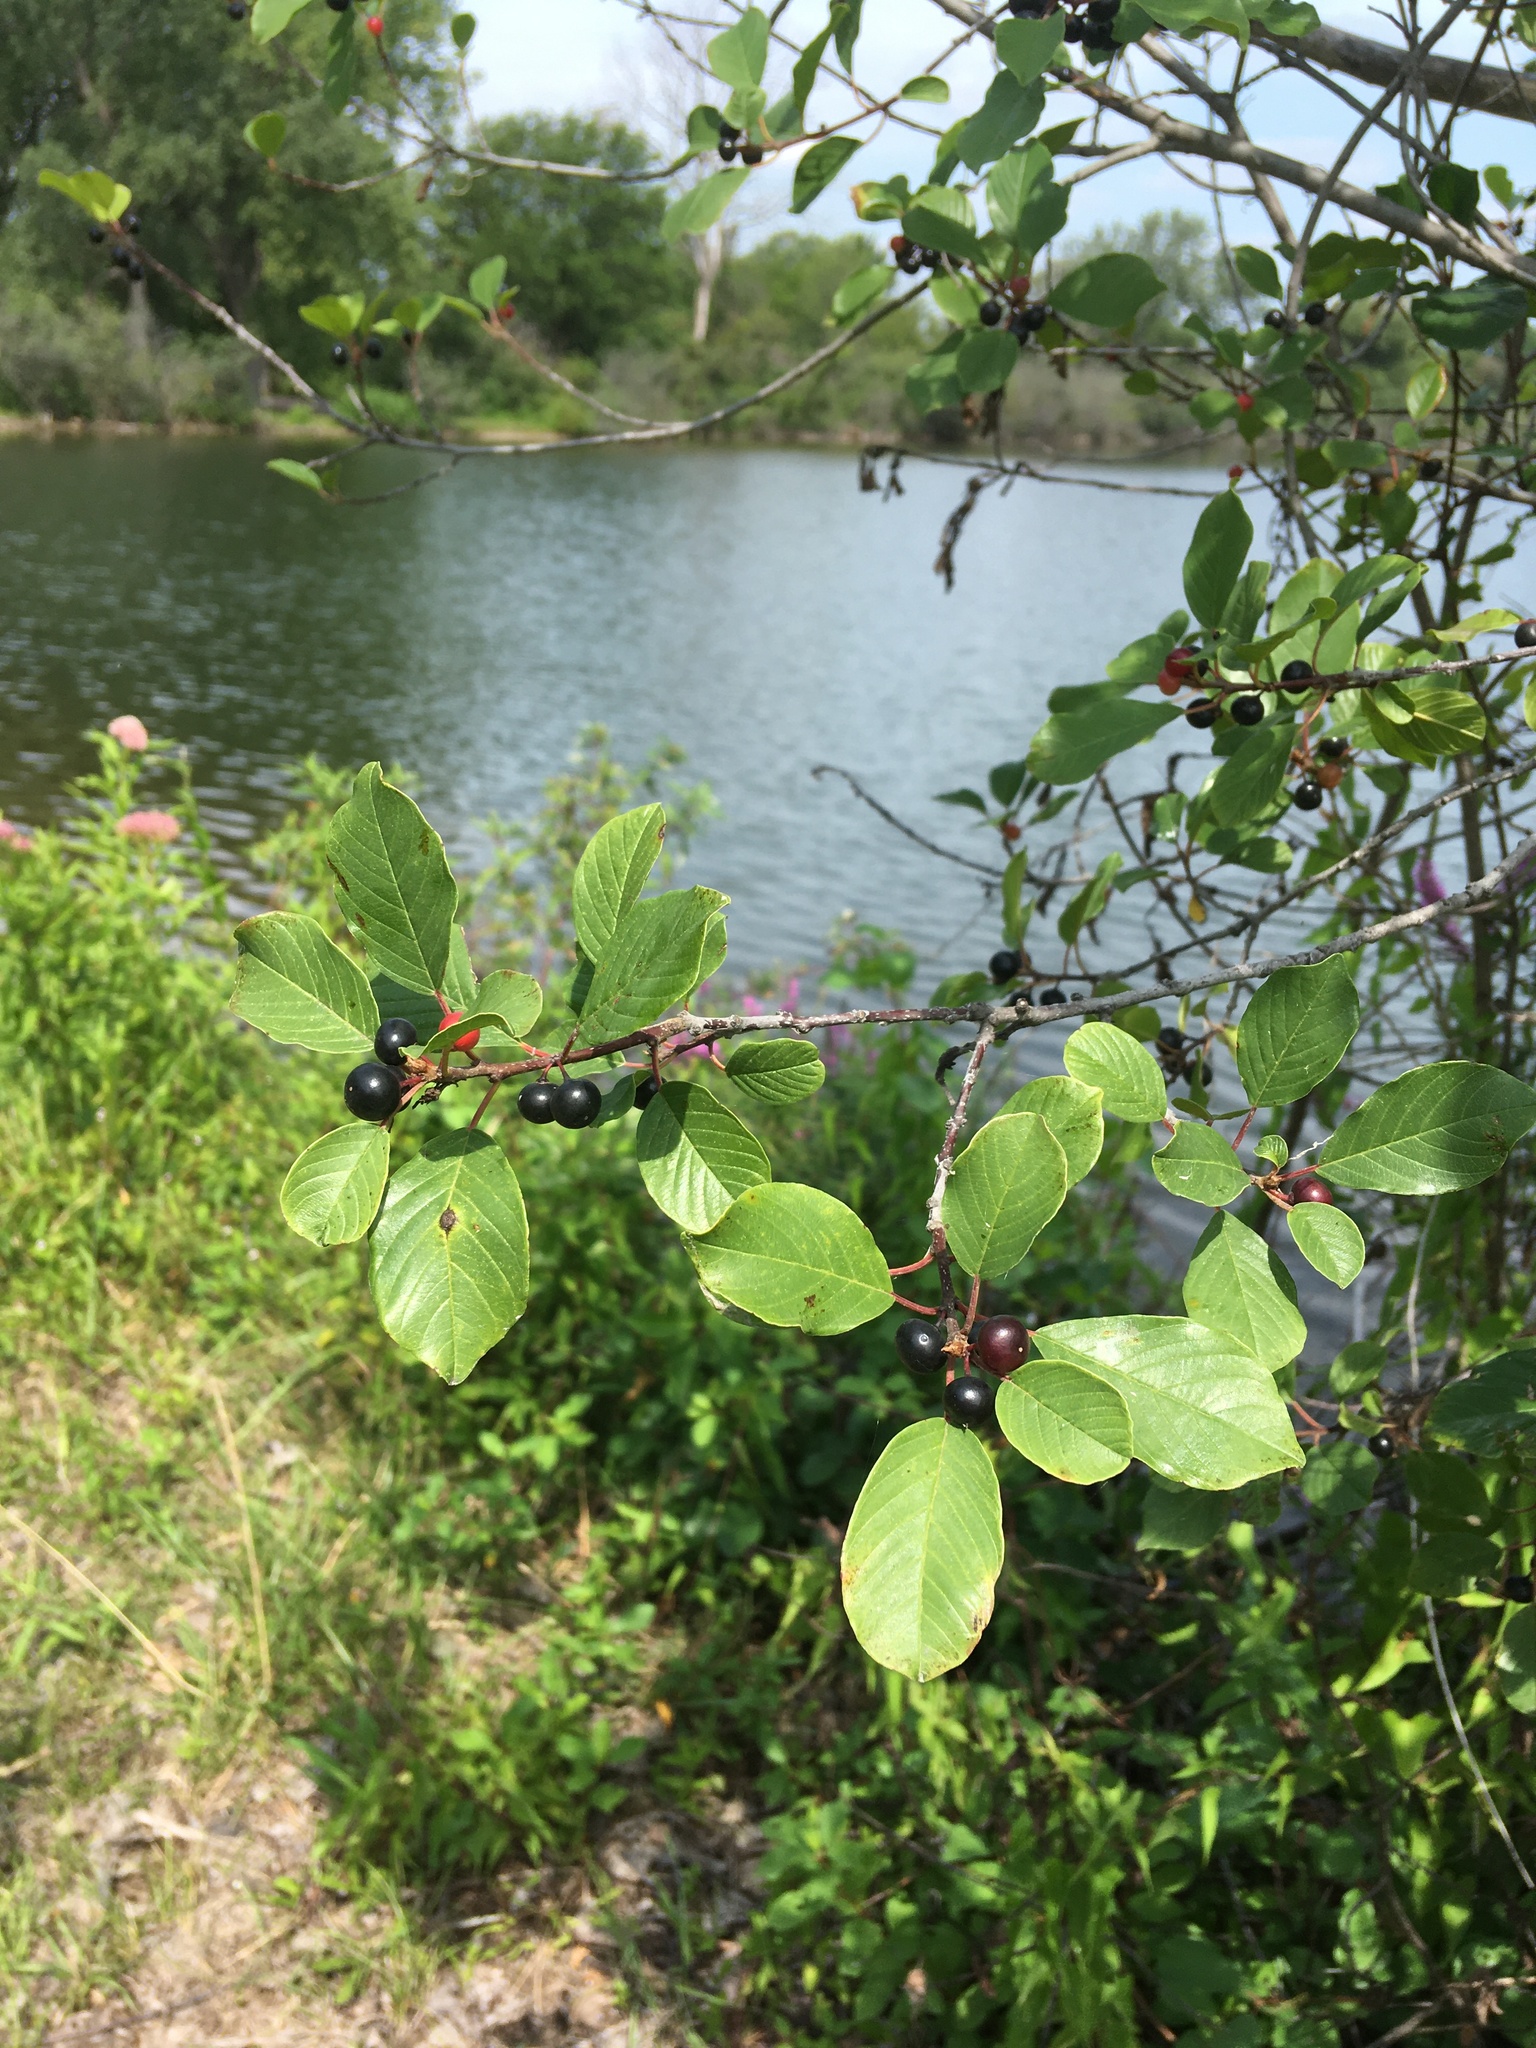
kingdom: Plantae
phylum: Tracheophyta
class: Magnoliopsida
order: Rosales
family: Rhamnaceae
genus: Frangula
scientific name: Frangula alnus
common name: Alder buckthorn
